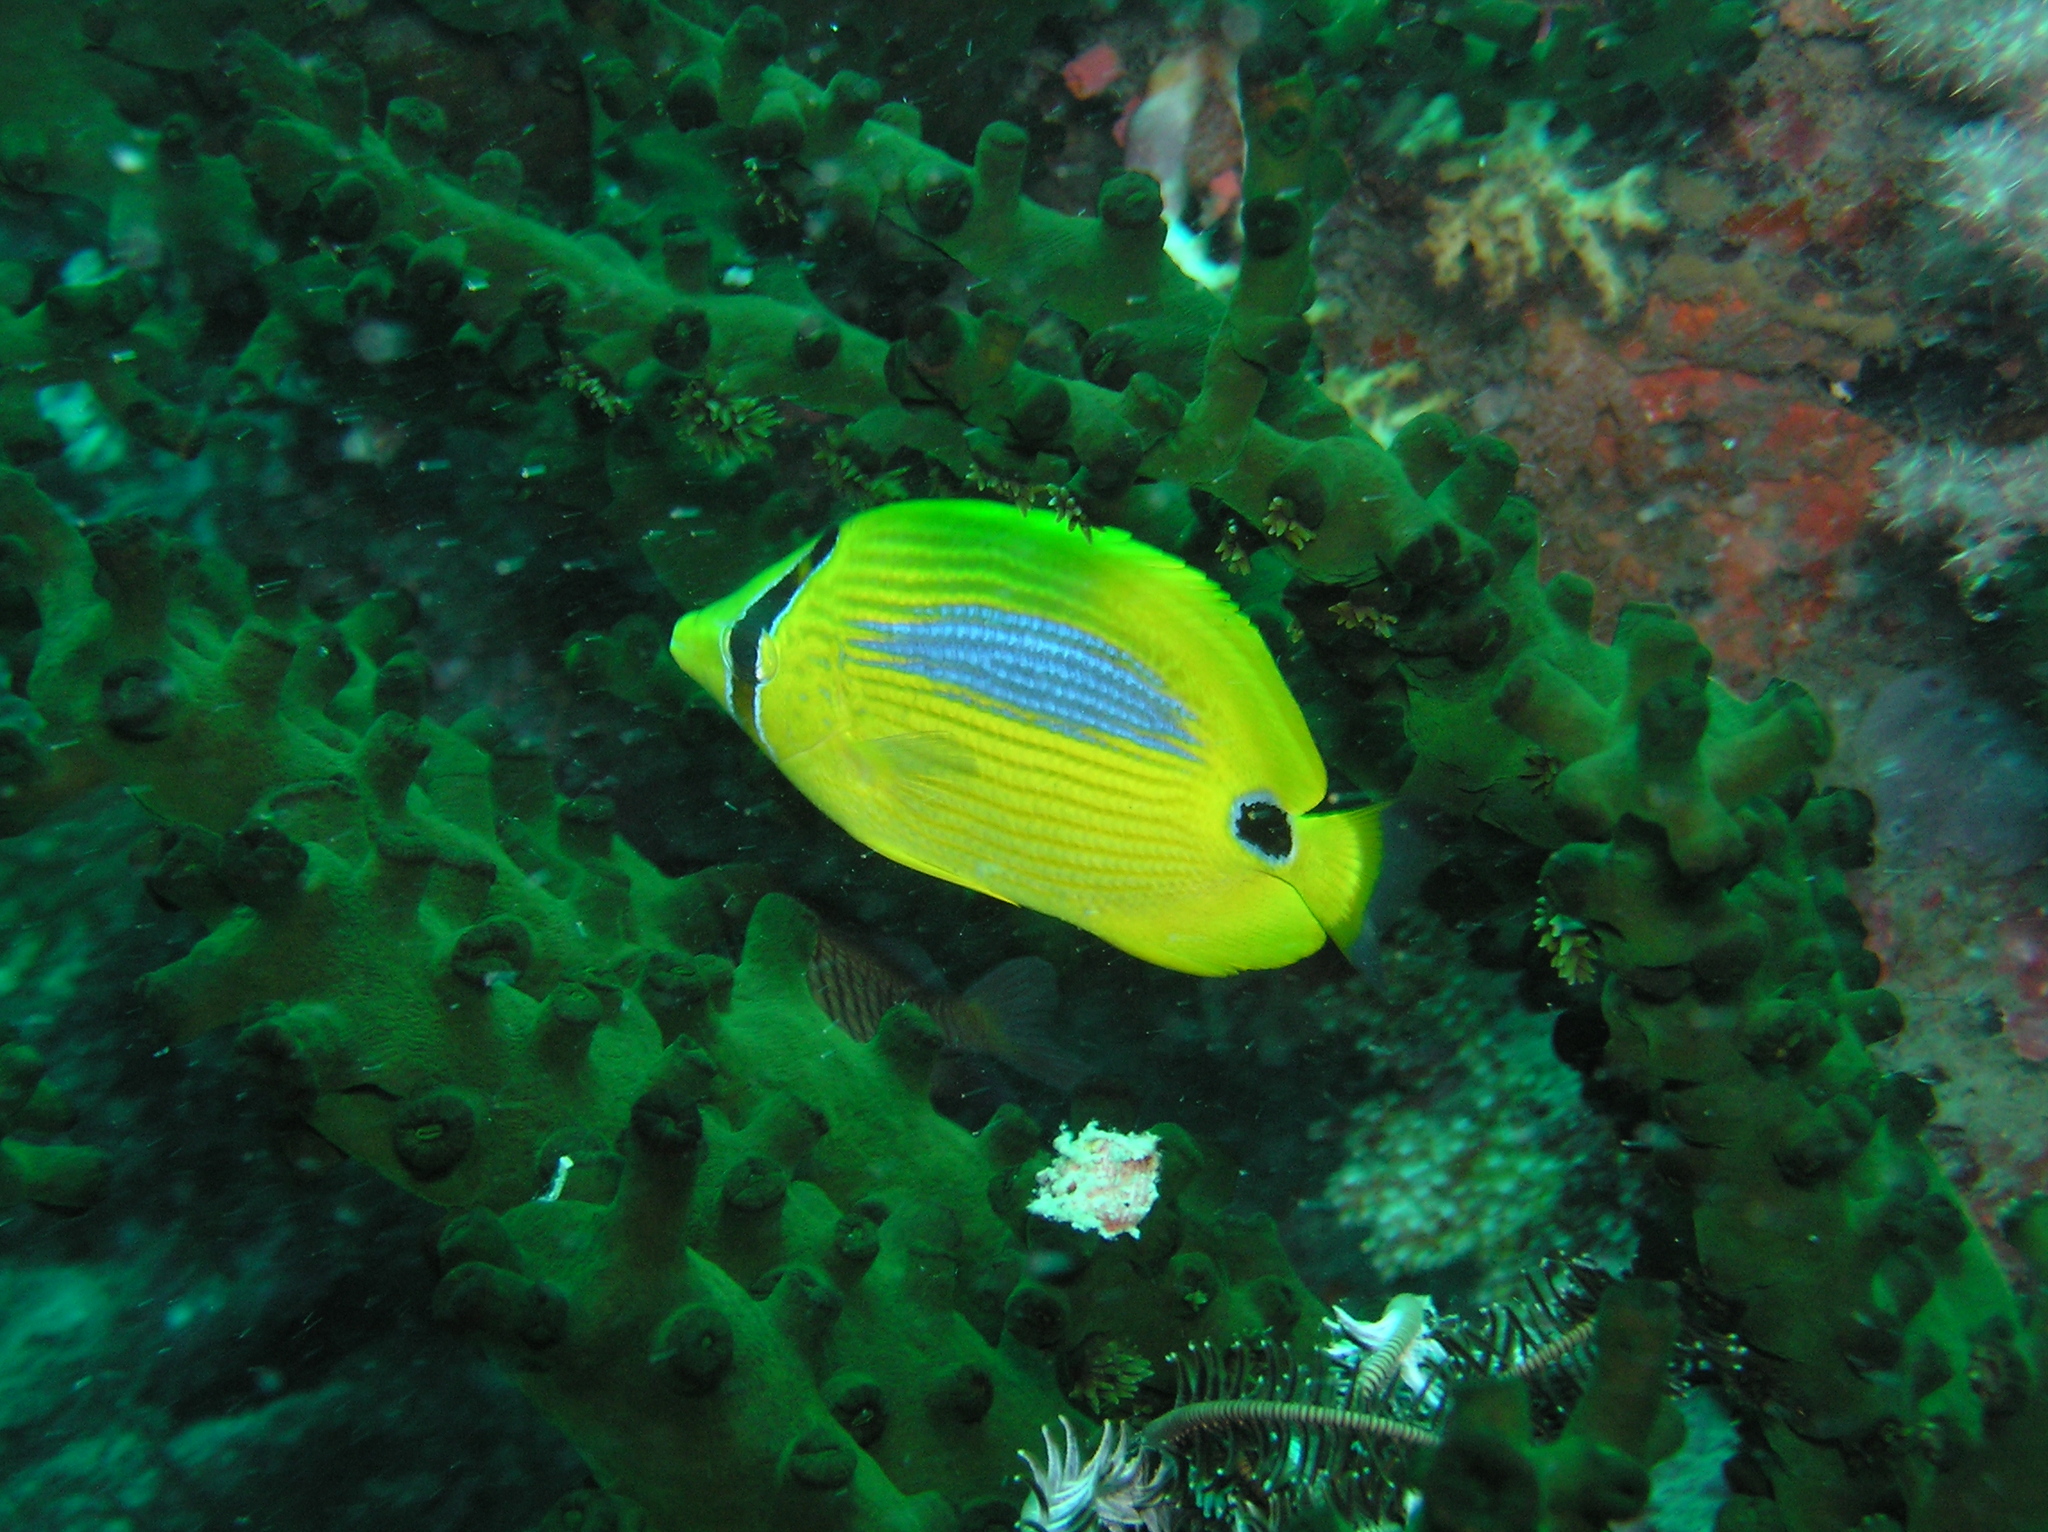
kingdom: Animalia
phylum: Chordata
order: Perciformes
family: Chaetodontidae
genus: Chaetodon
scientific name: Chaetodon plebeius
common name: Bluespot butterflyfish
